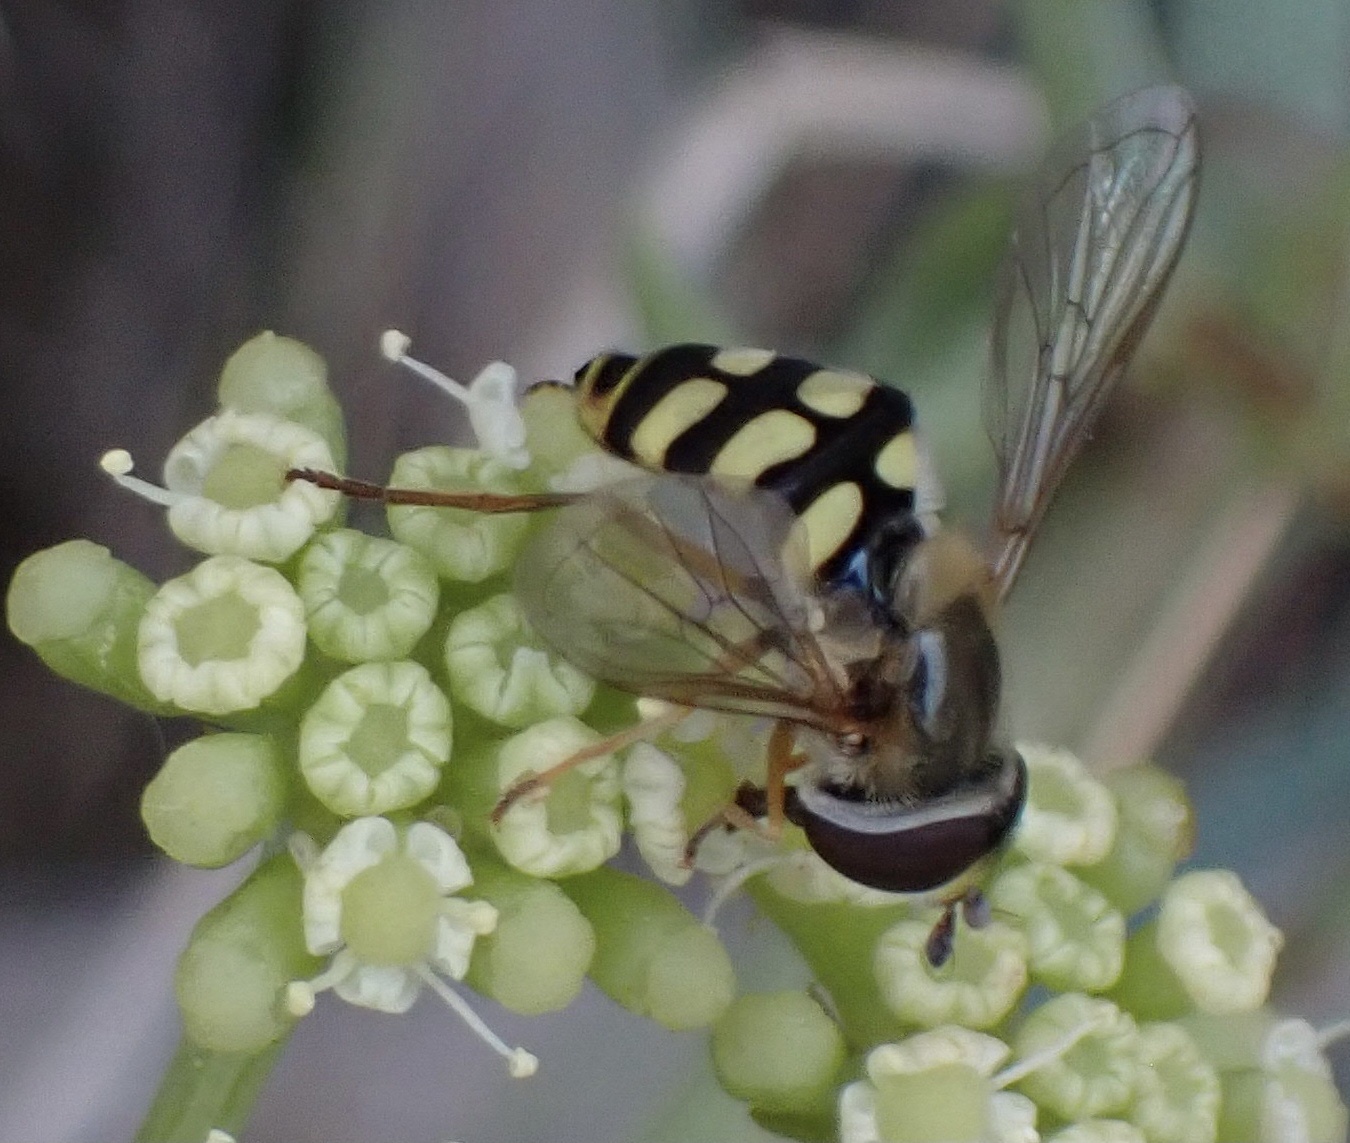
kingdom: Animalia
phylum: Arthropoda
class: Insecta
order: Diptera
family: Syrphidae
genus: Eupeodes
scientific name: Eupeodes corollae
